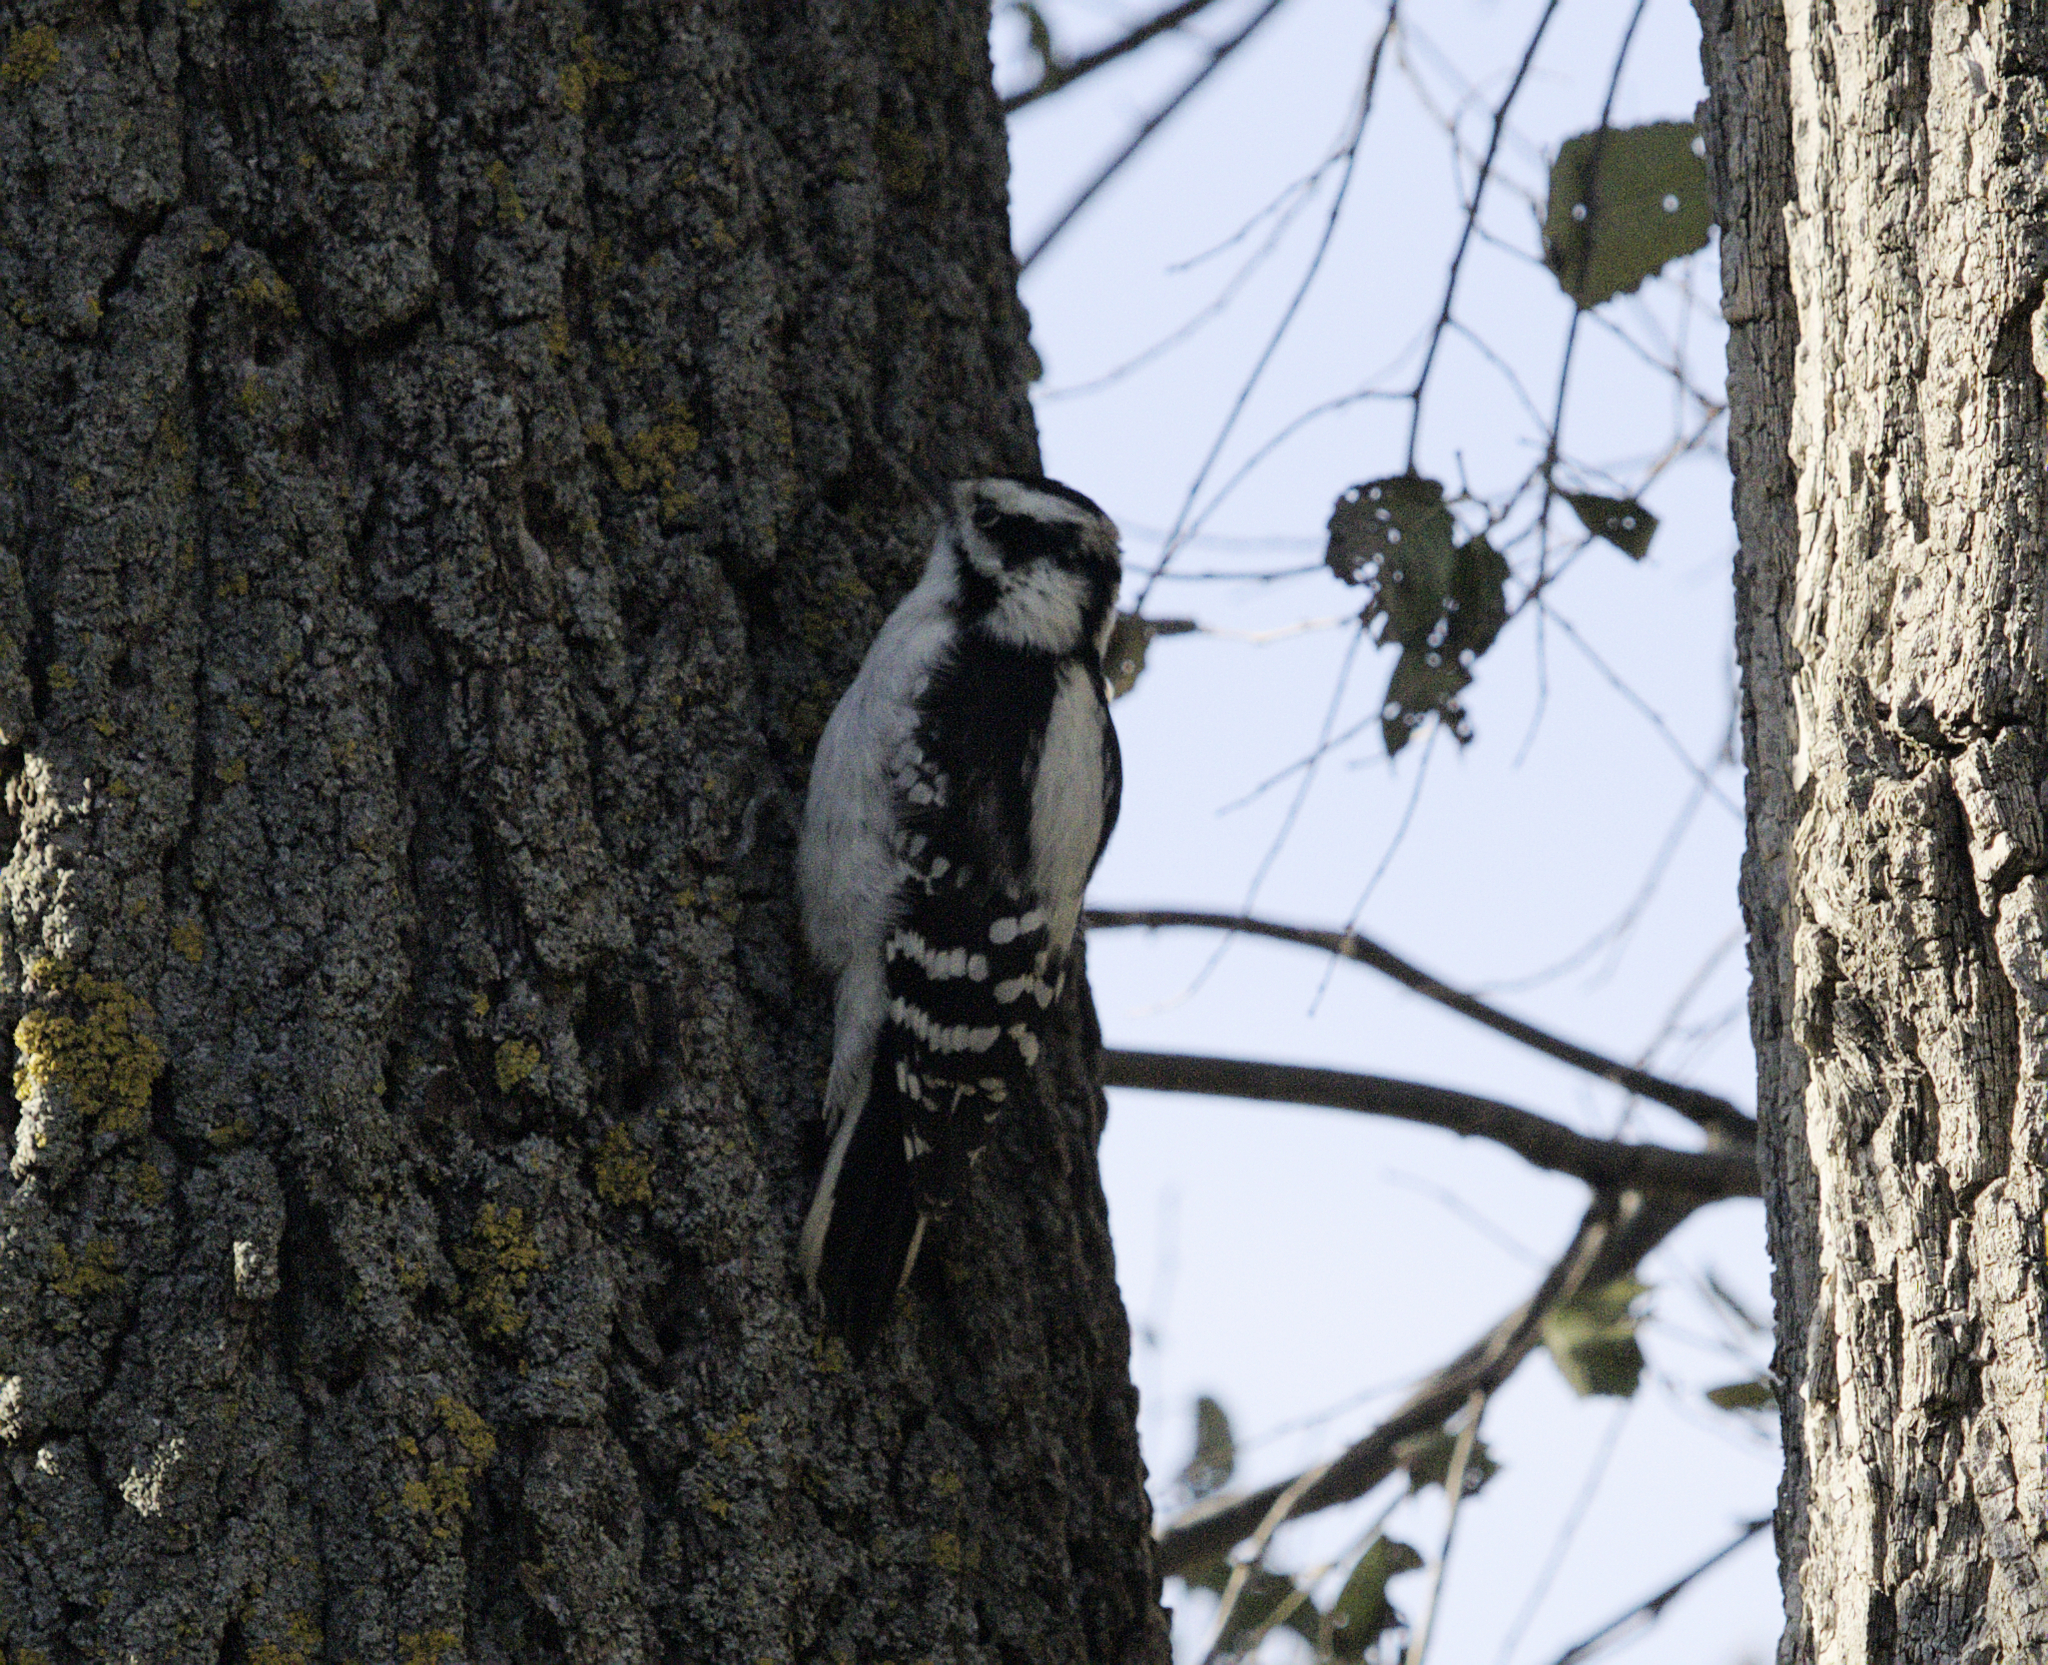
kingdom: Animalia
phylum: Chordata
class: Aves
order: Piciformes
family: Picidae
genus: Dryobates
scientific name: Dryobates pubescens
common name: Downy woodpecker
